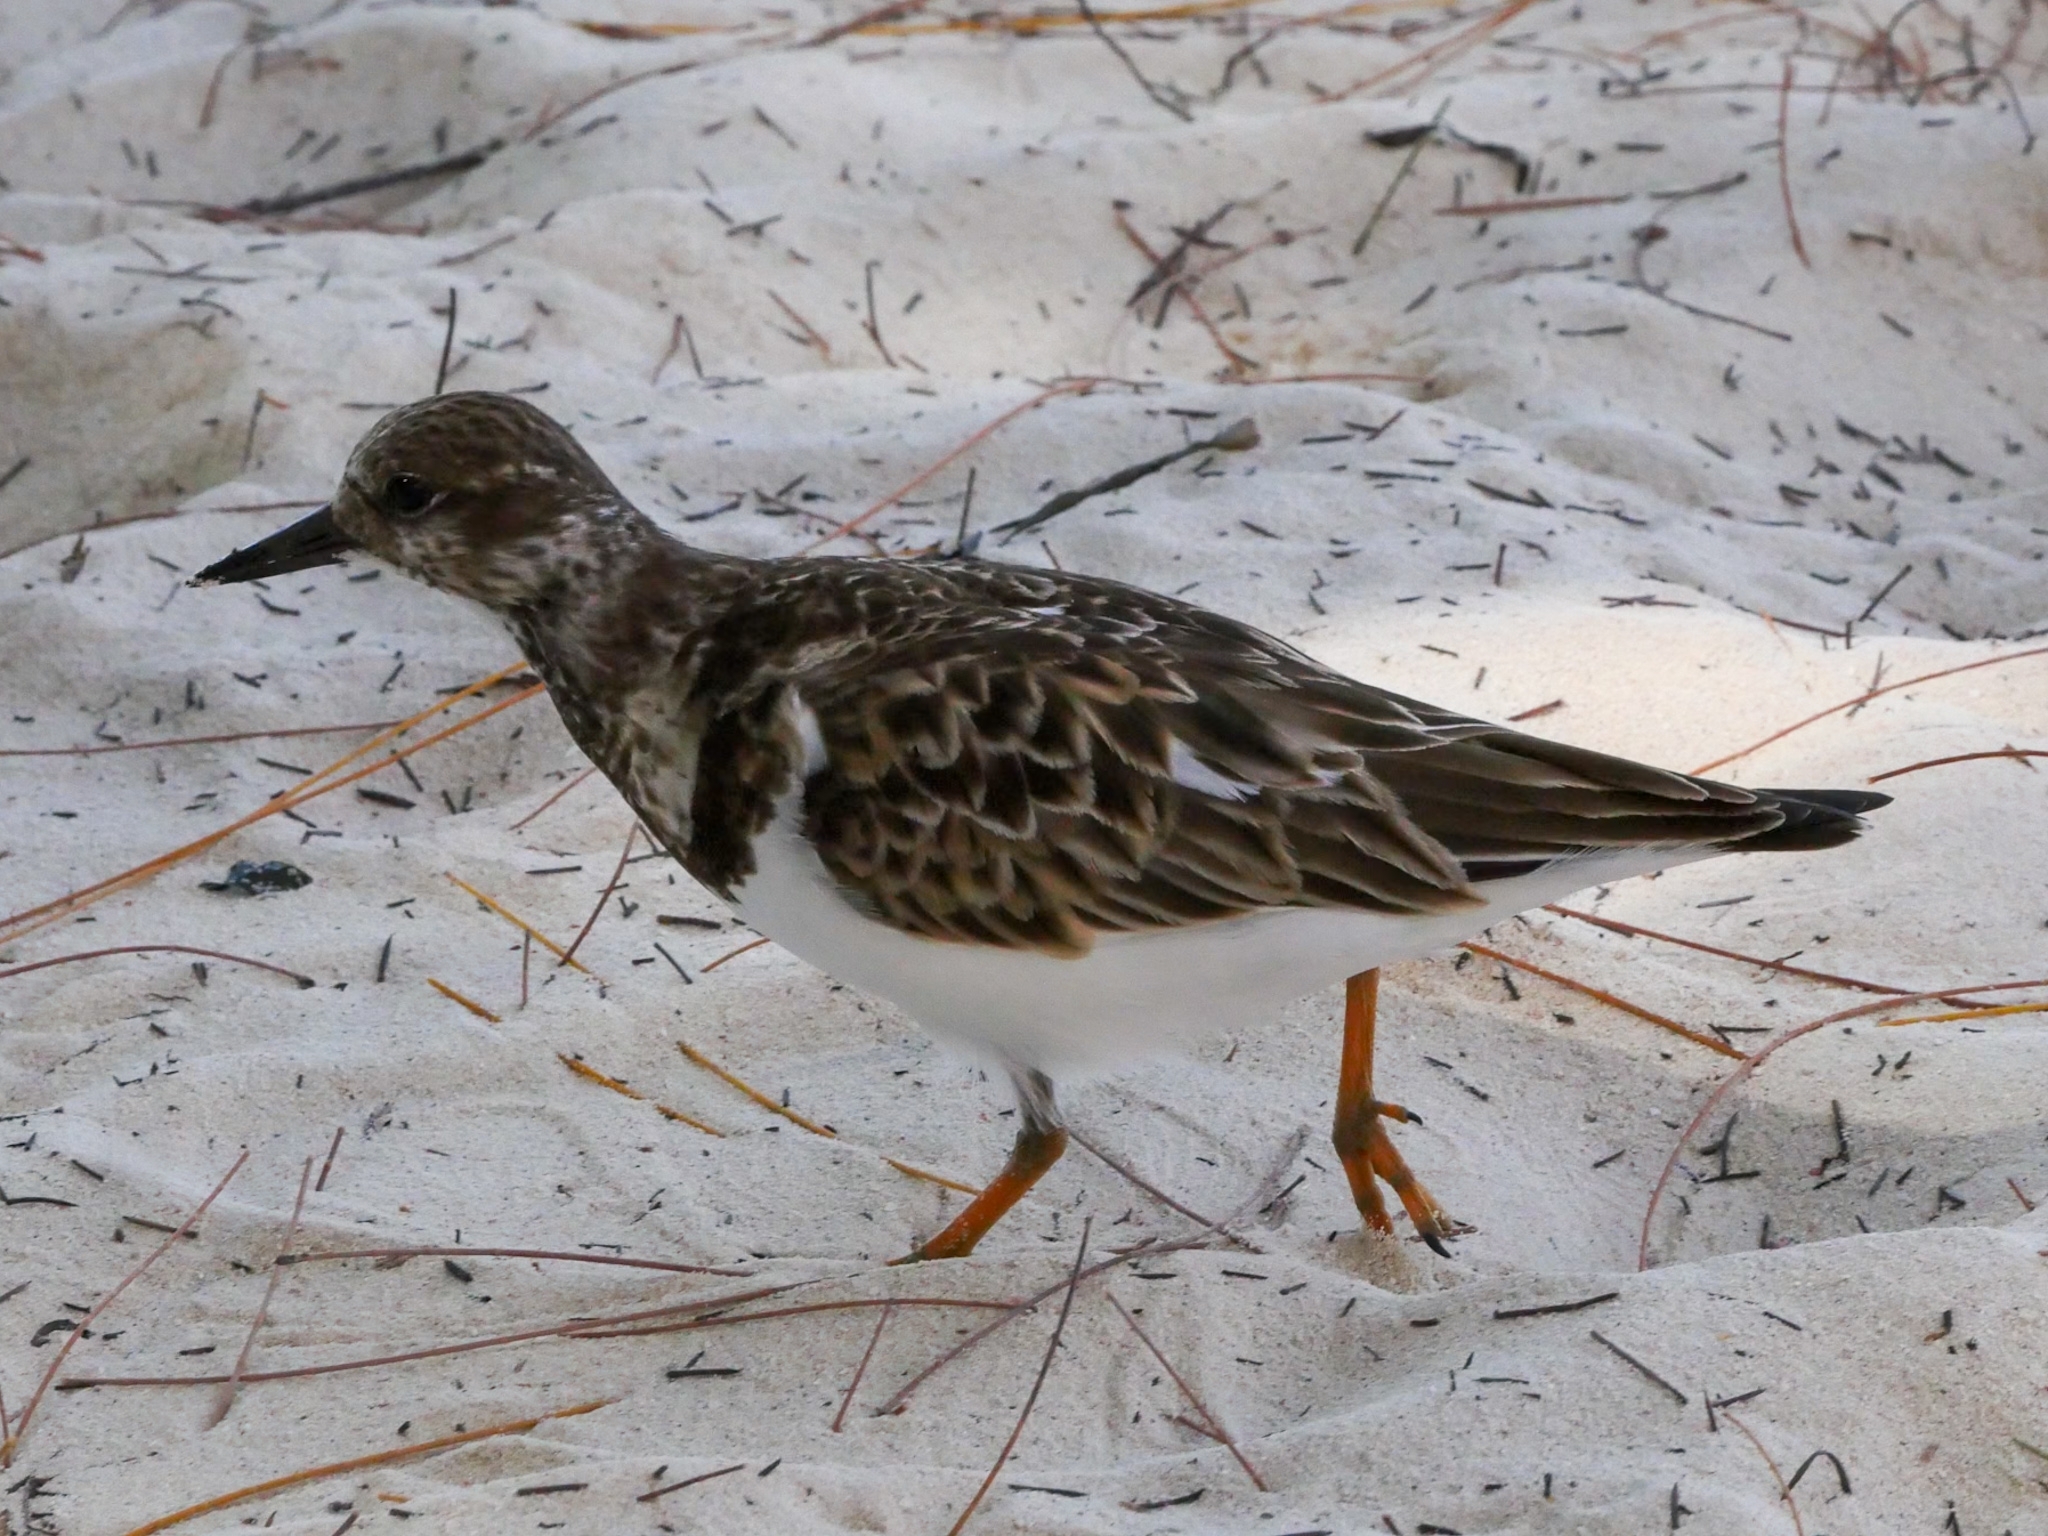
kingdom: Animalia
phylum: Chordata
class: Aves
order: Charadriiformes
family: Scolopacidae
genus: Arenaria
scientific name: Arenaria interpres
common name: Ruddy turnstone
